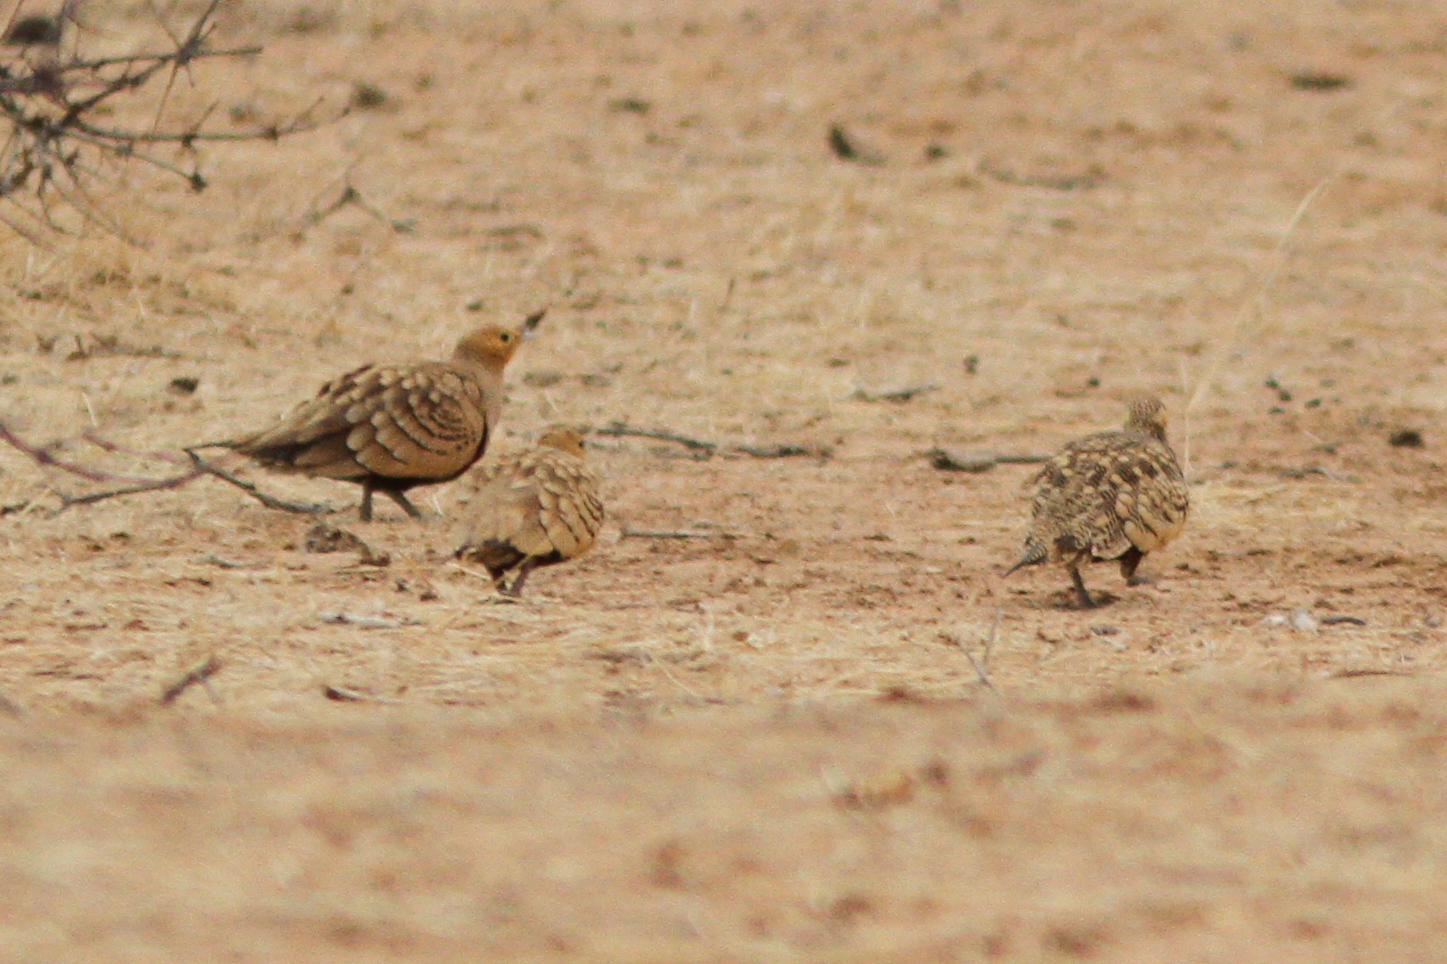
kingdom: Animalia
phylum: Chordata
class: Aves
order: Pteroclidiformes
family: Pteroclididae
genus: Pterocles
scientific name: Pterocles exustus
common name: Chestnut-bellied sandgrouse
